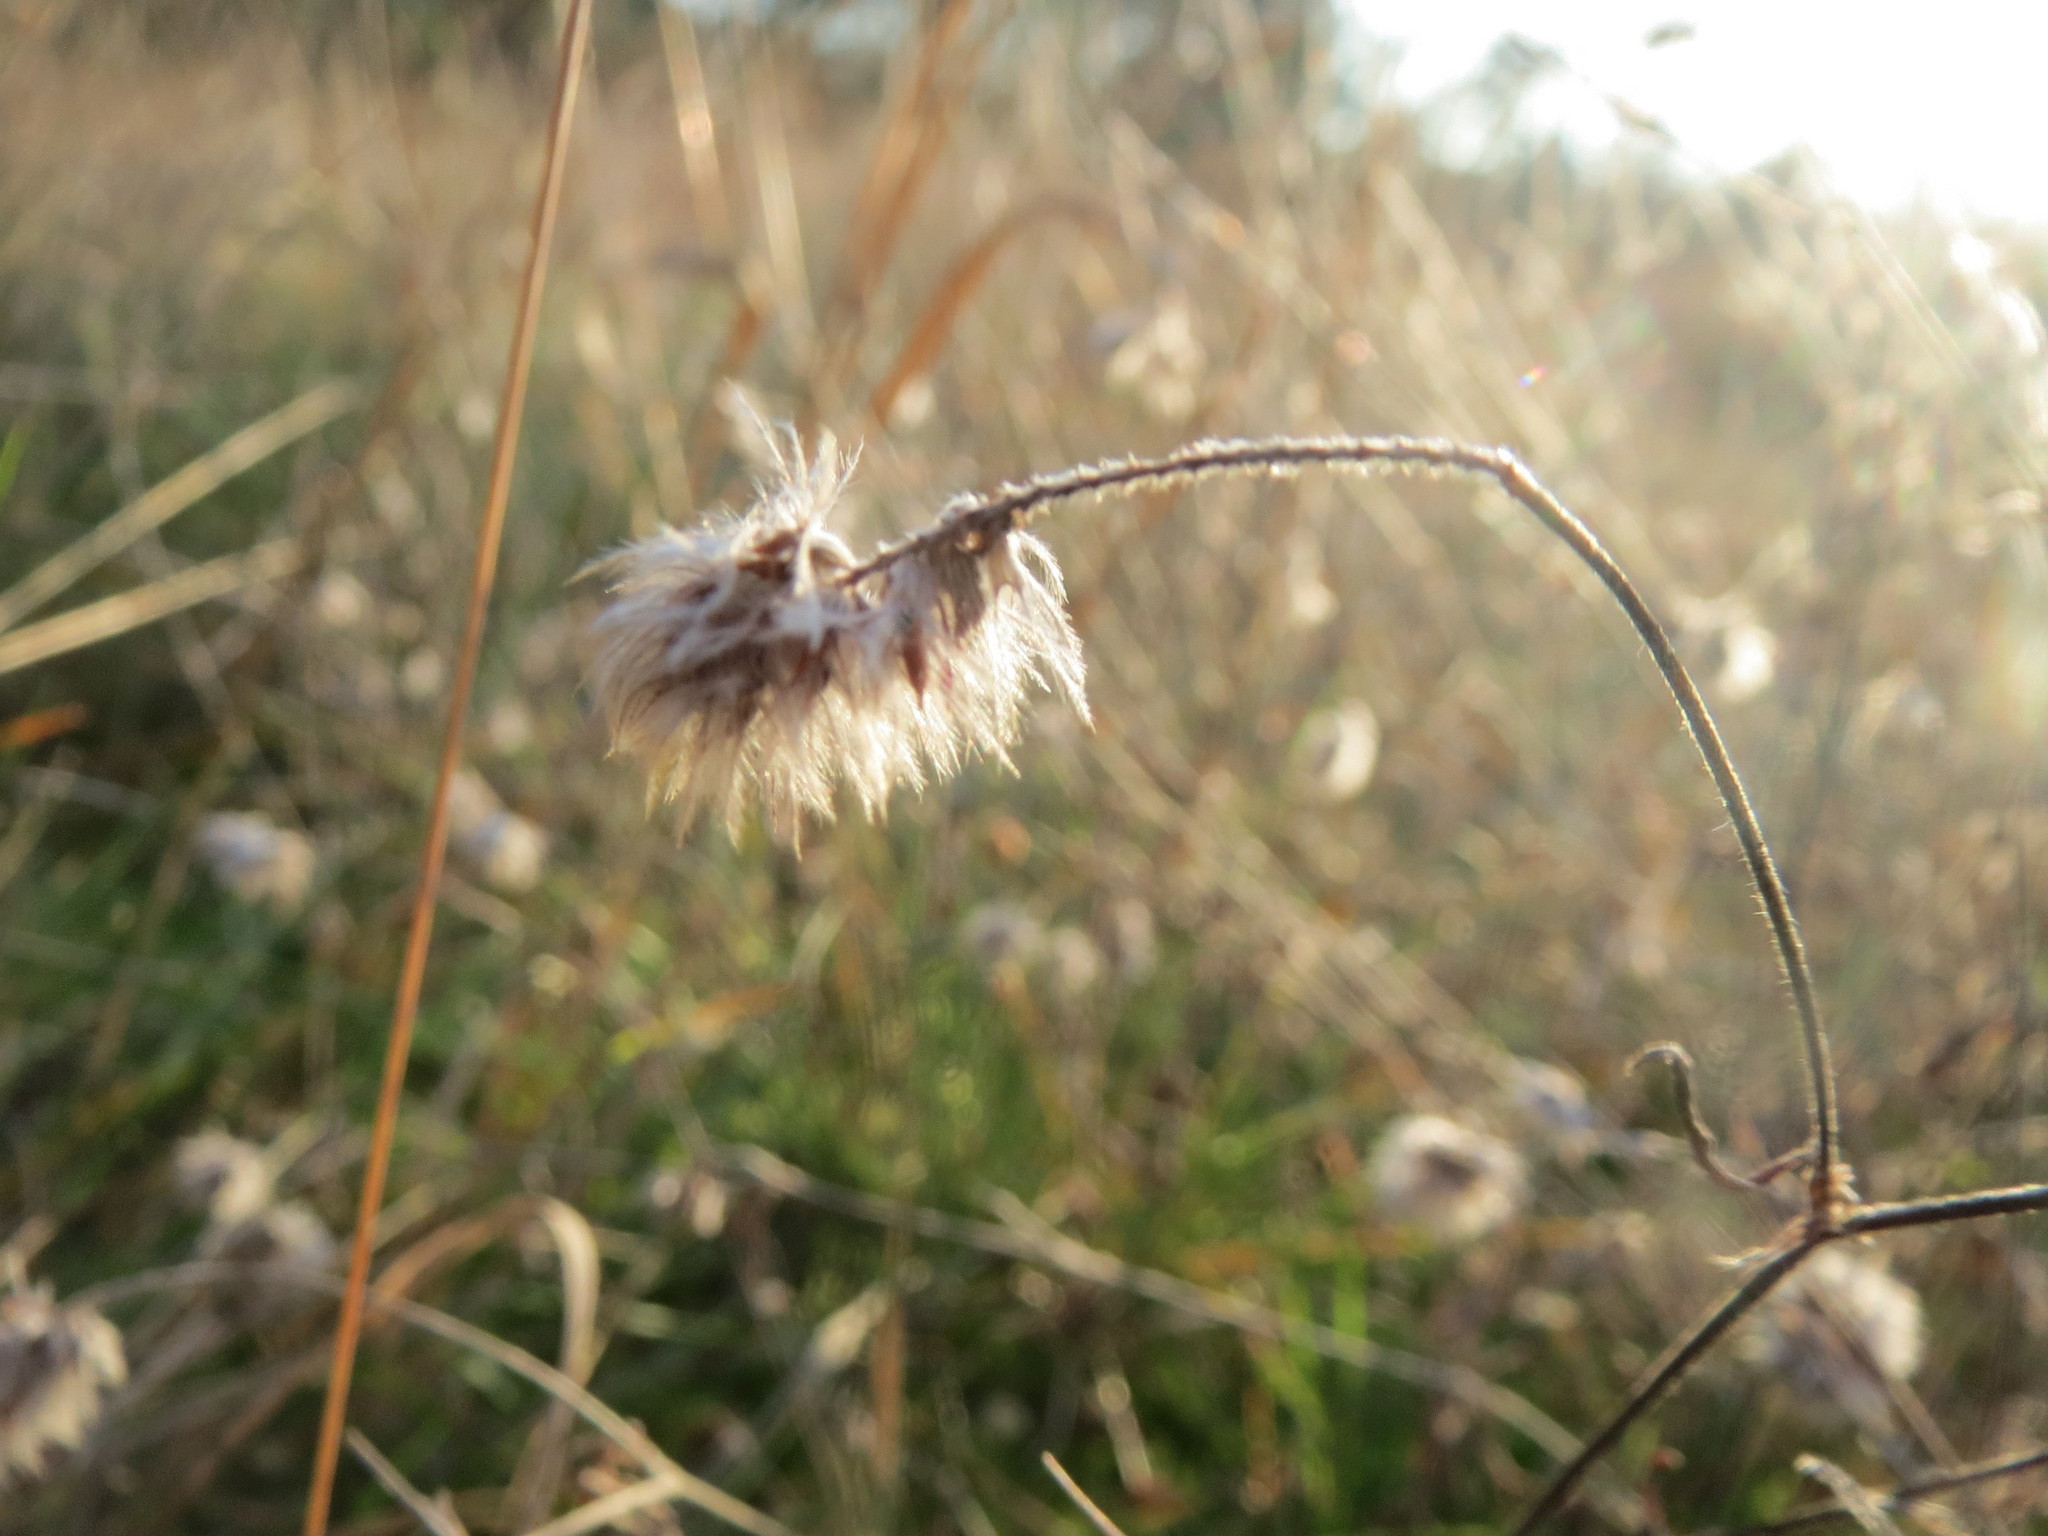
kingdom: Plantae
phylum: Tracheophyta
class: Magnoliopsida
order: Fabales
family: Fabaceae
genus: Trifolium
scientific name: Trifolium arvense
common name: Hare's-foot clover
